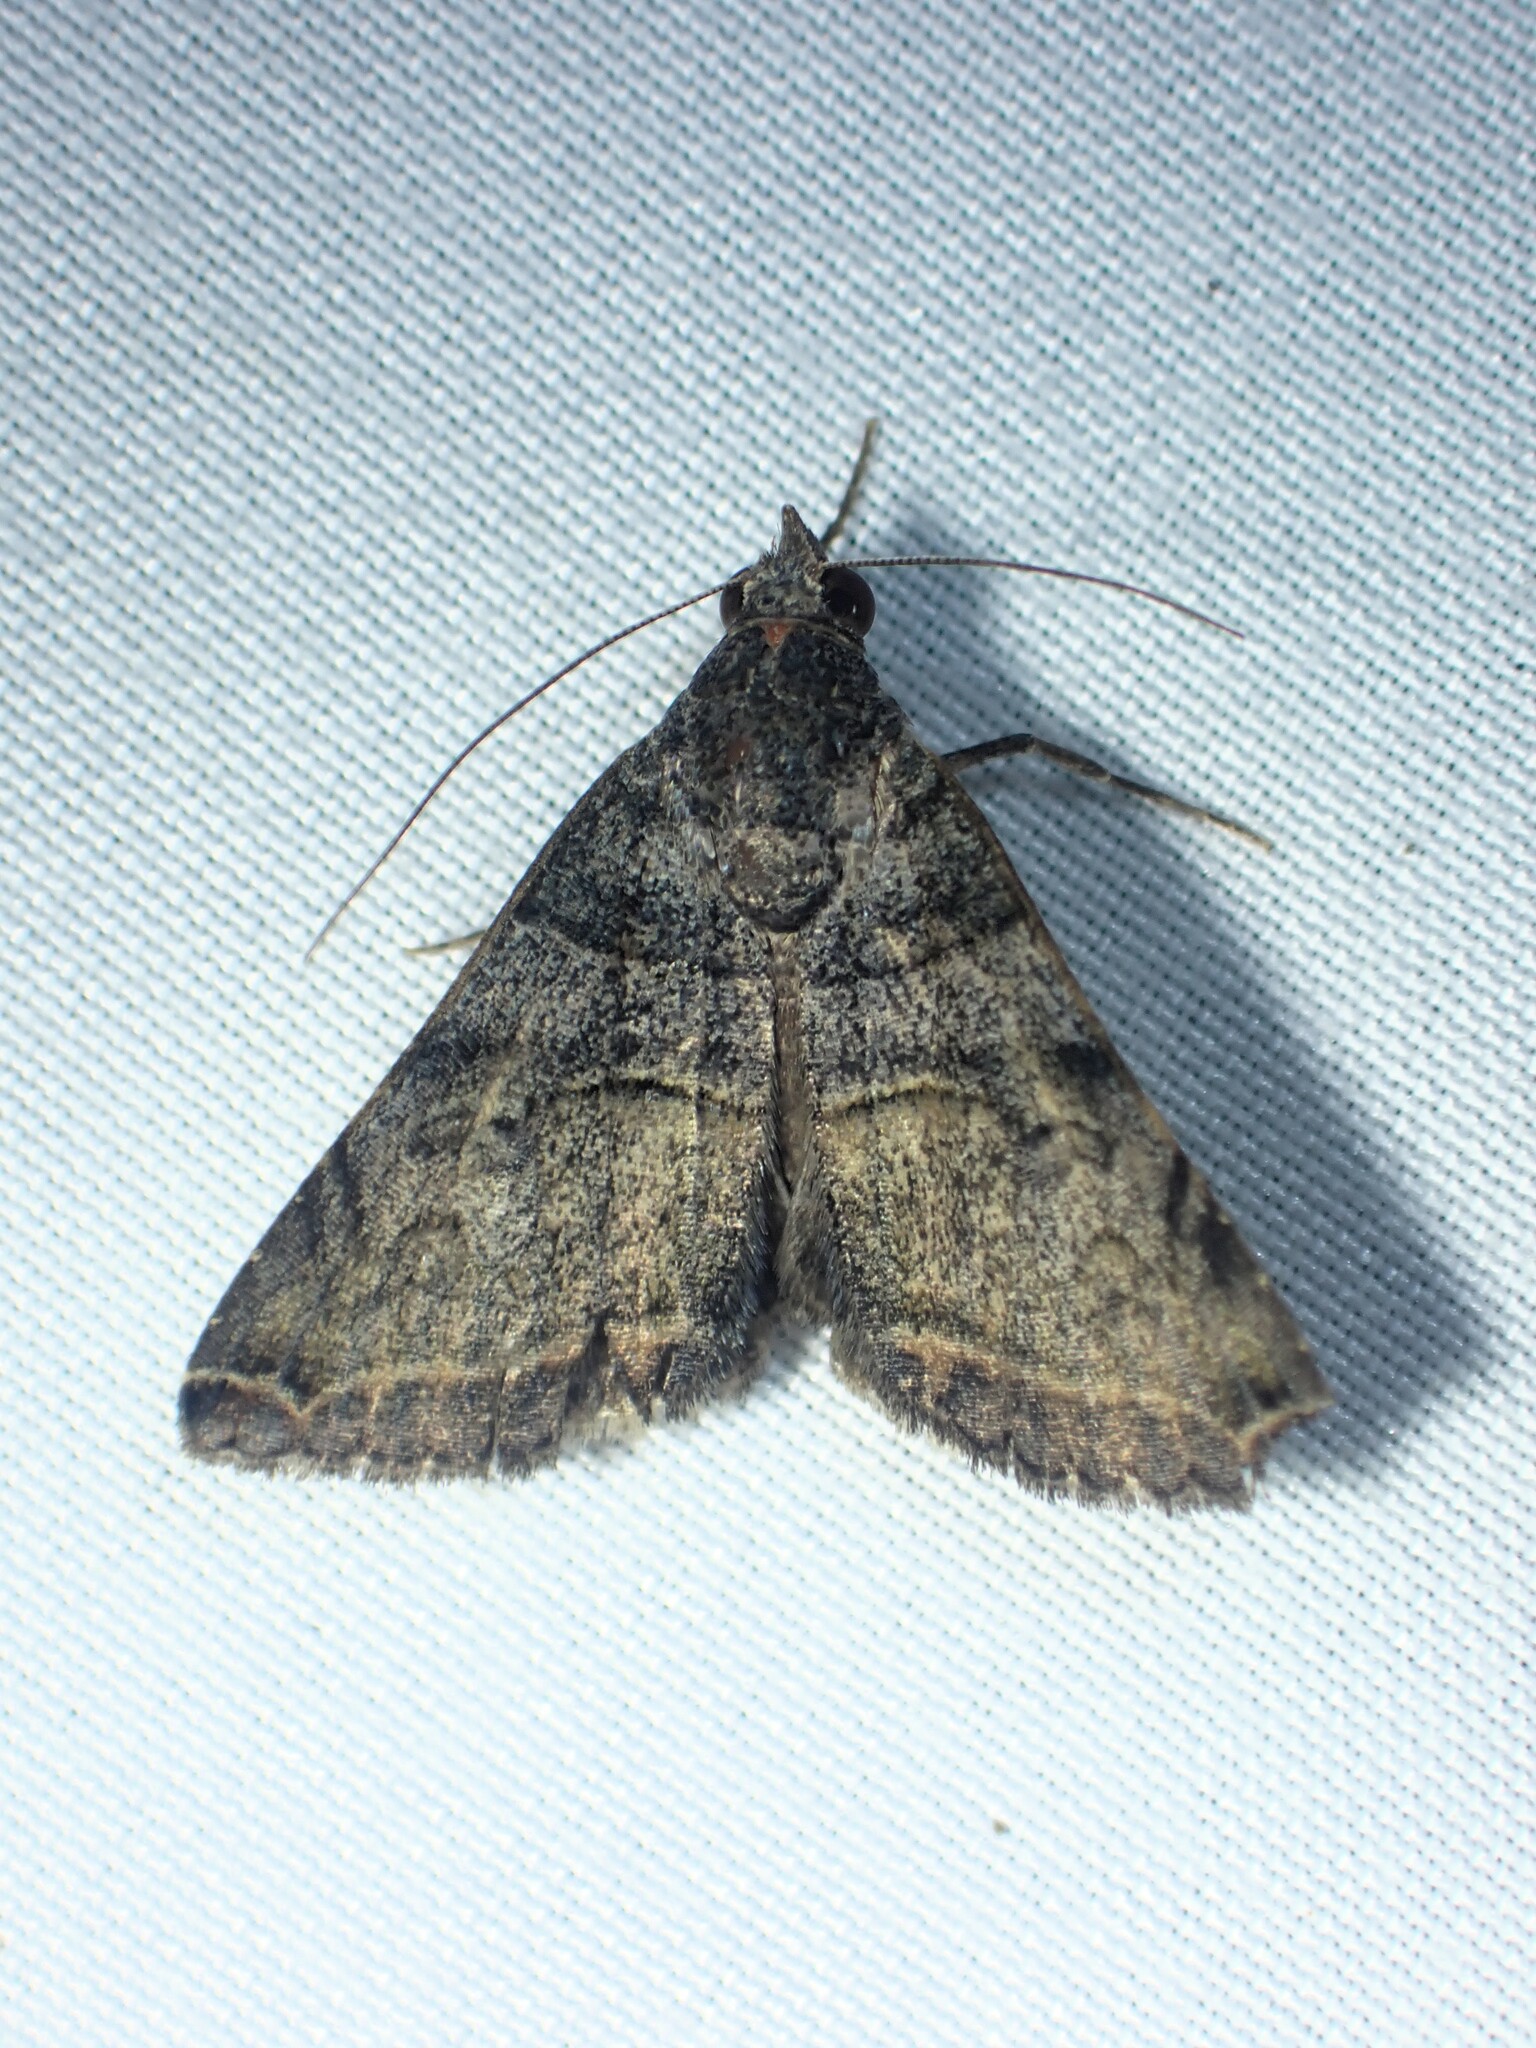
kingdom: Animalia
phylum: Arthropoda
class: Insecta
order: Lepidoptera
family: Erebidae
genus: Panula
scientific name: Panula inconstans
